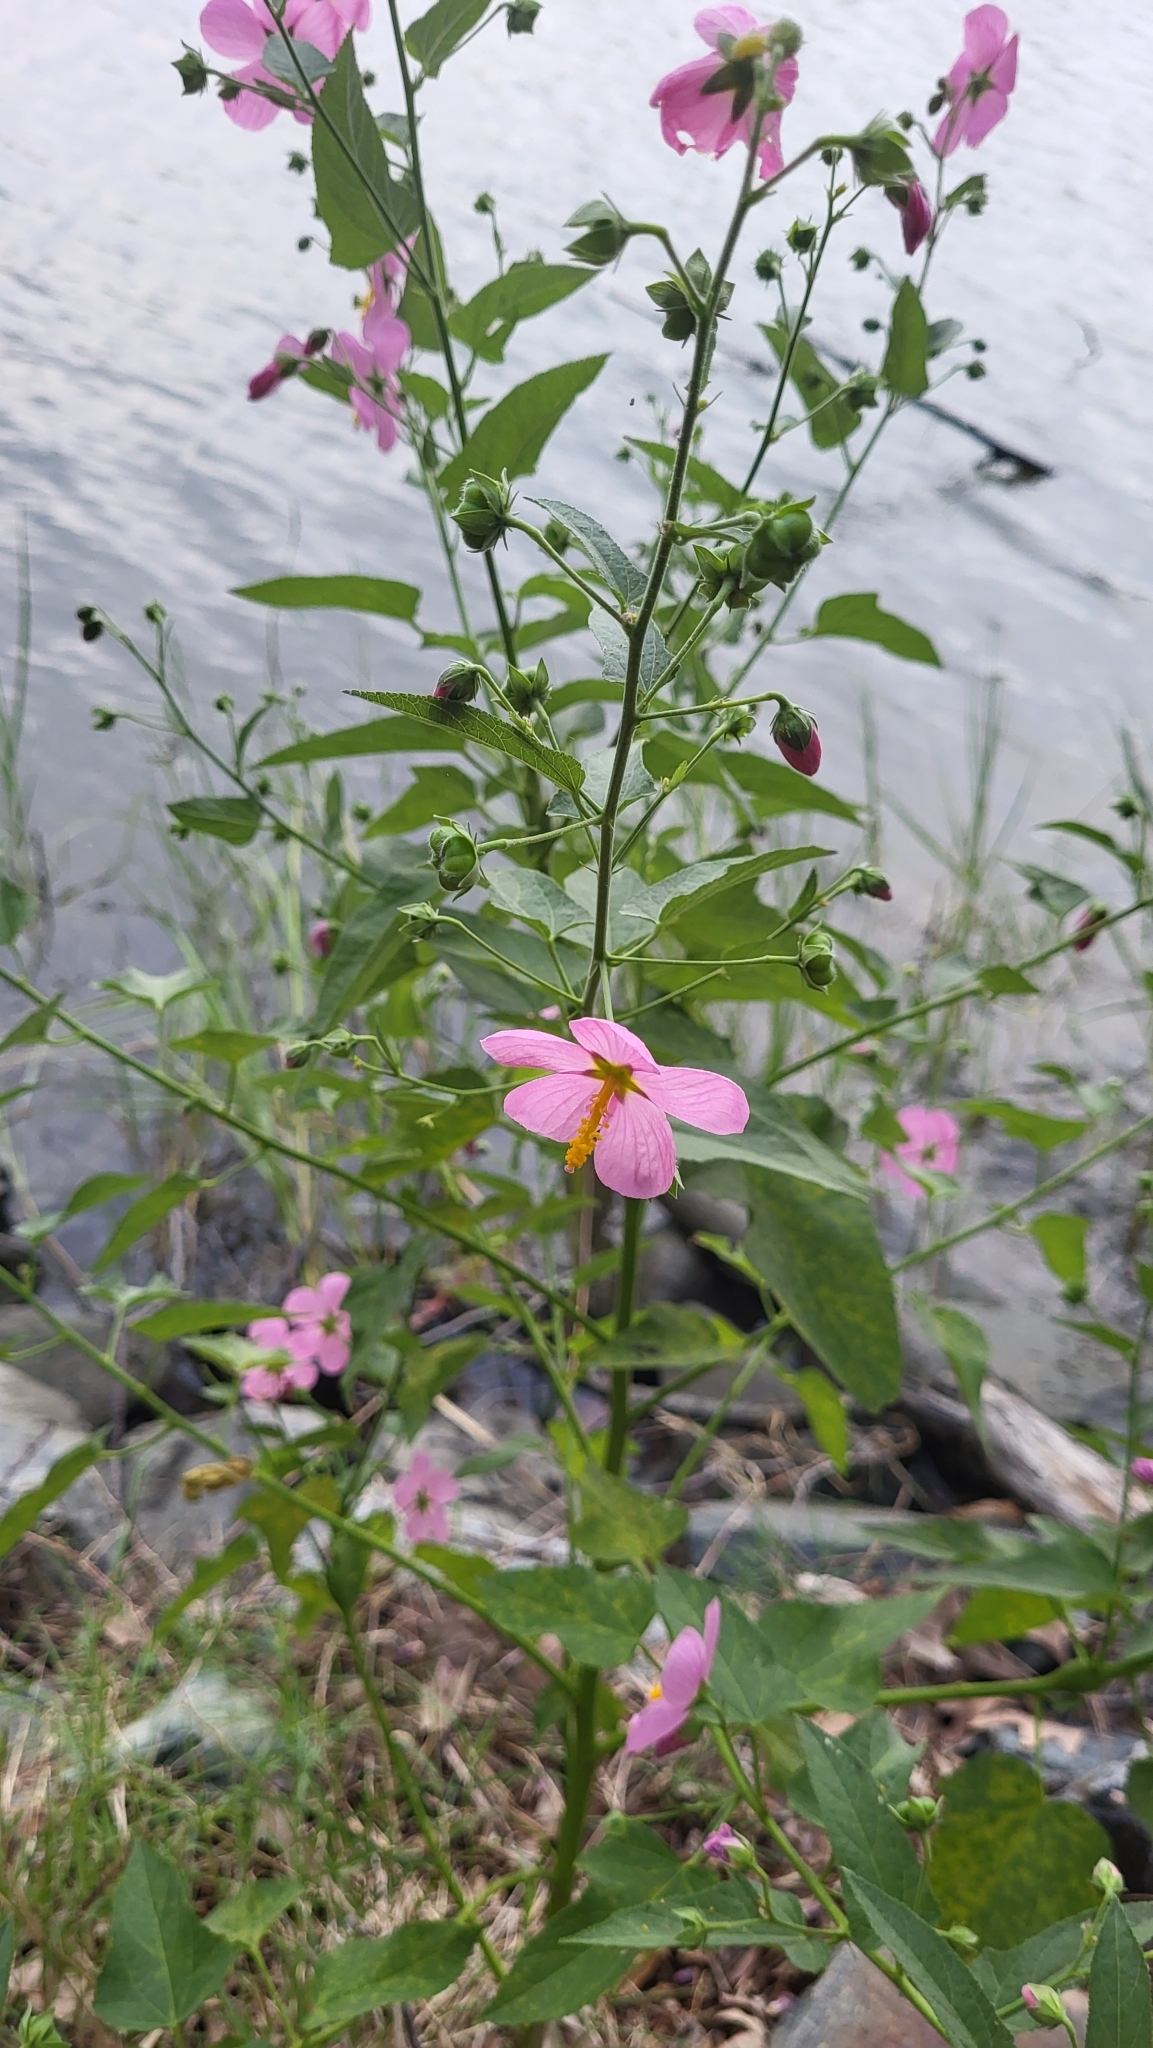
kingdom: Plantae
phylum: Tracheophyta
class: Magnoliopsida
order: Malvales
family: Malvaceae
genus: Kosteletzkya
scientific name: Kosteletzkya pentacarpos
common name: Virginia saltmarsh mallow
